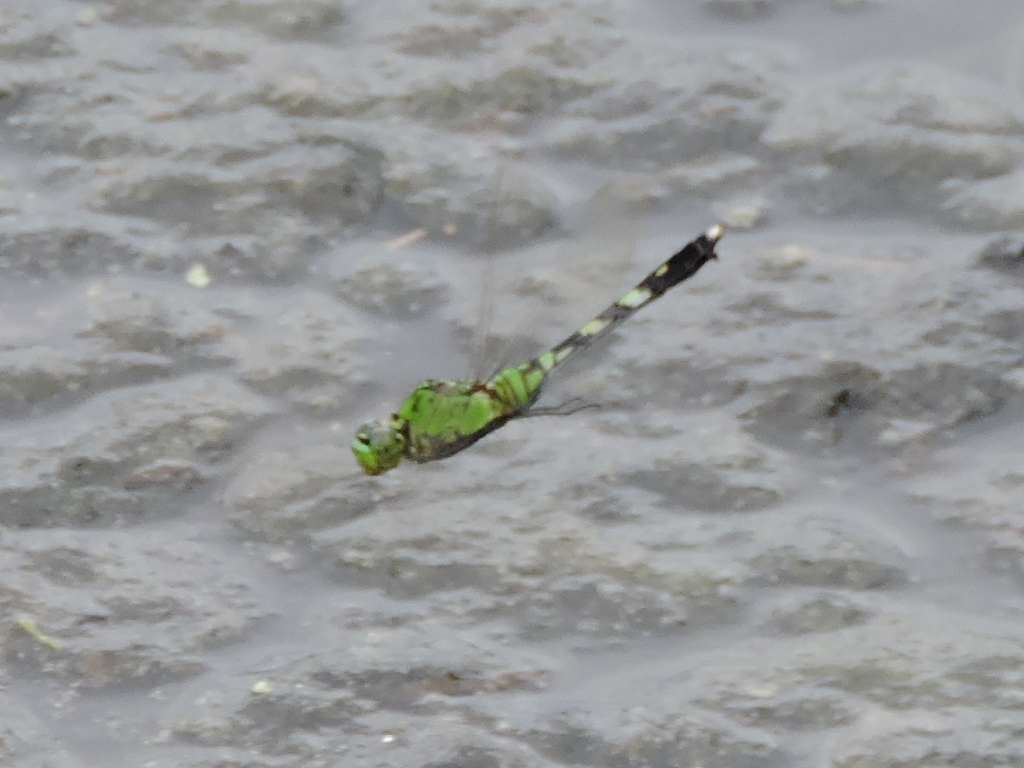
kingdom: Animalia
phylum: Arthropoda
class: Insecta
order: Odonata
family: Libellulidae
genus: Erythemis
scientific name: Erythemis simplicicollis
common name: Eastern pondhawk
